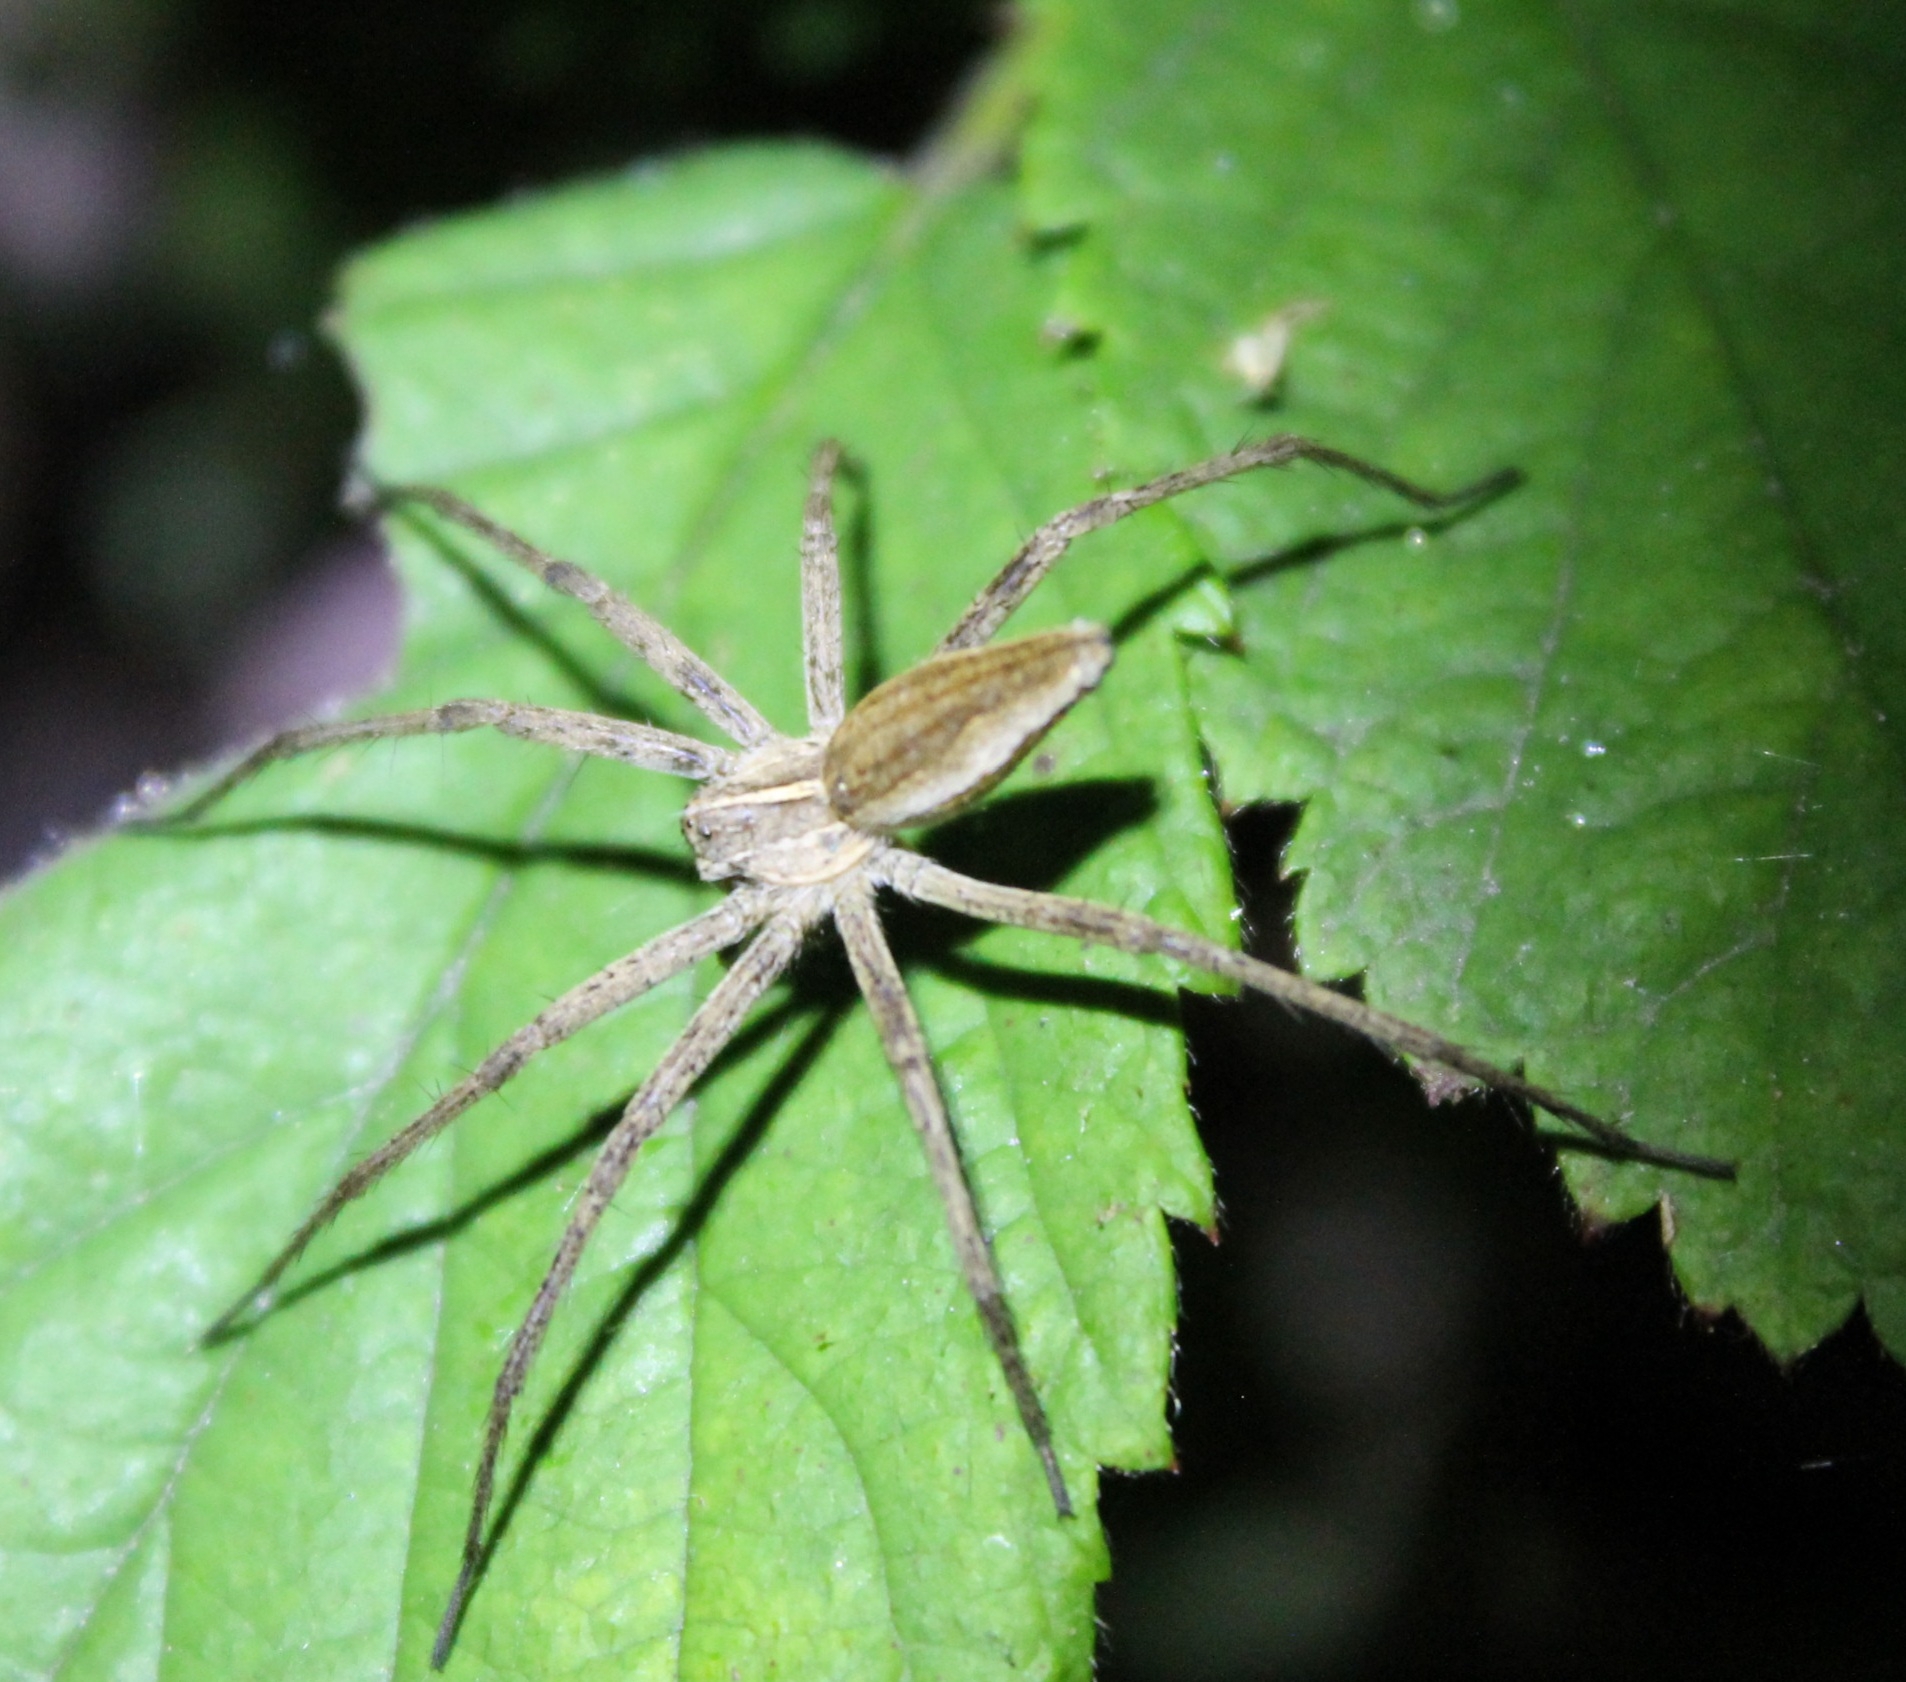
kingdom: Animalia
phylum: Arthropoda
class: Arachnida
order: Araneae
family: Pisauridae
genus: Pisaura
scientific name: Pisaura mirabilis
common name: Tent spider
